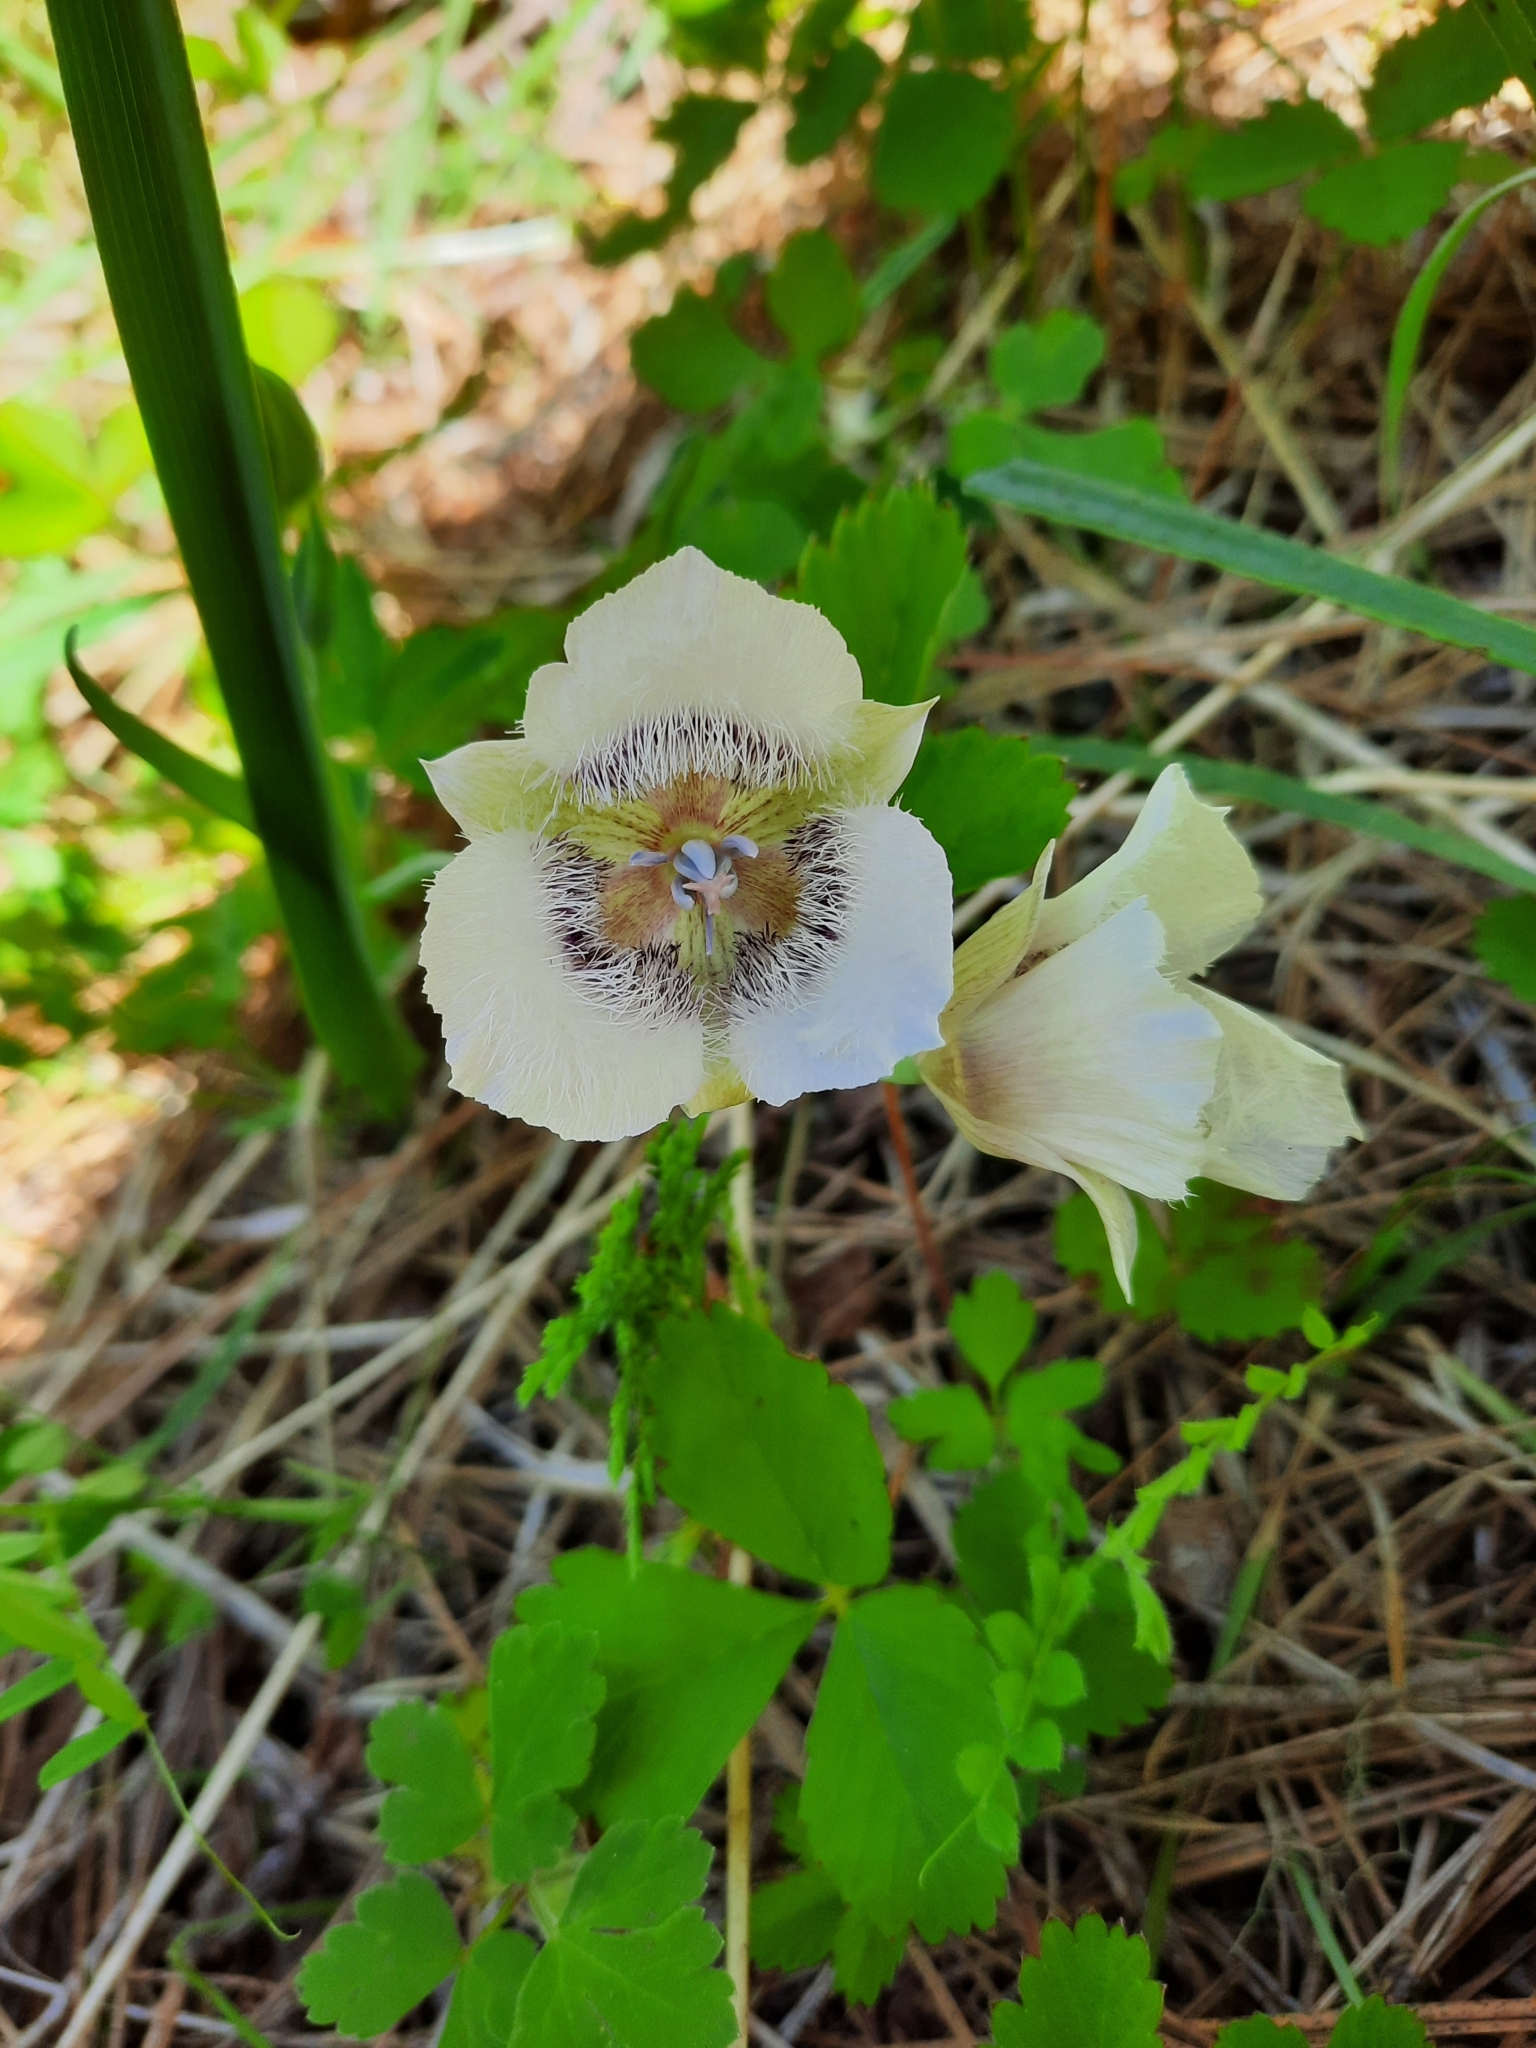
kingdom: Plantae
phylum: Tracheophyta
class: Liliopsida
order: Liliales
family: Liliaceae
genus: Calochortus
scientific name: Calochortus tolmiei
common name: Pussy-ears
